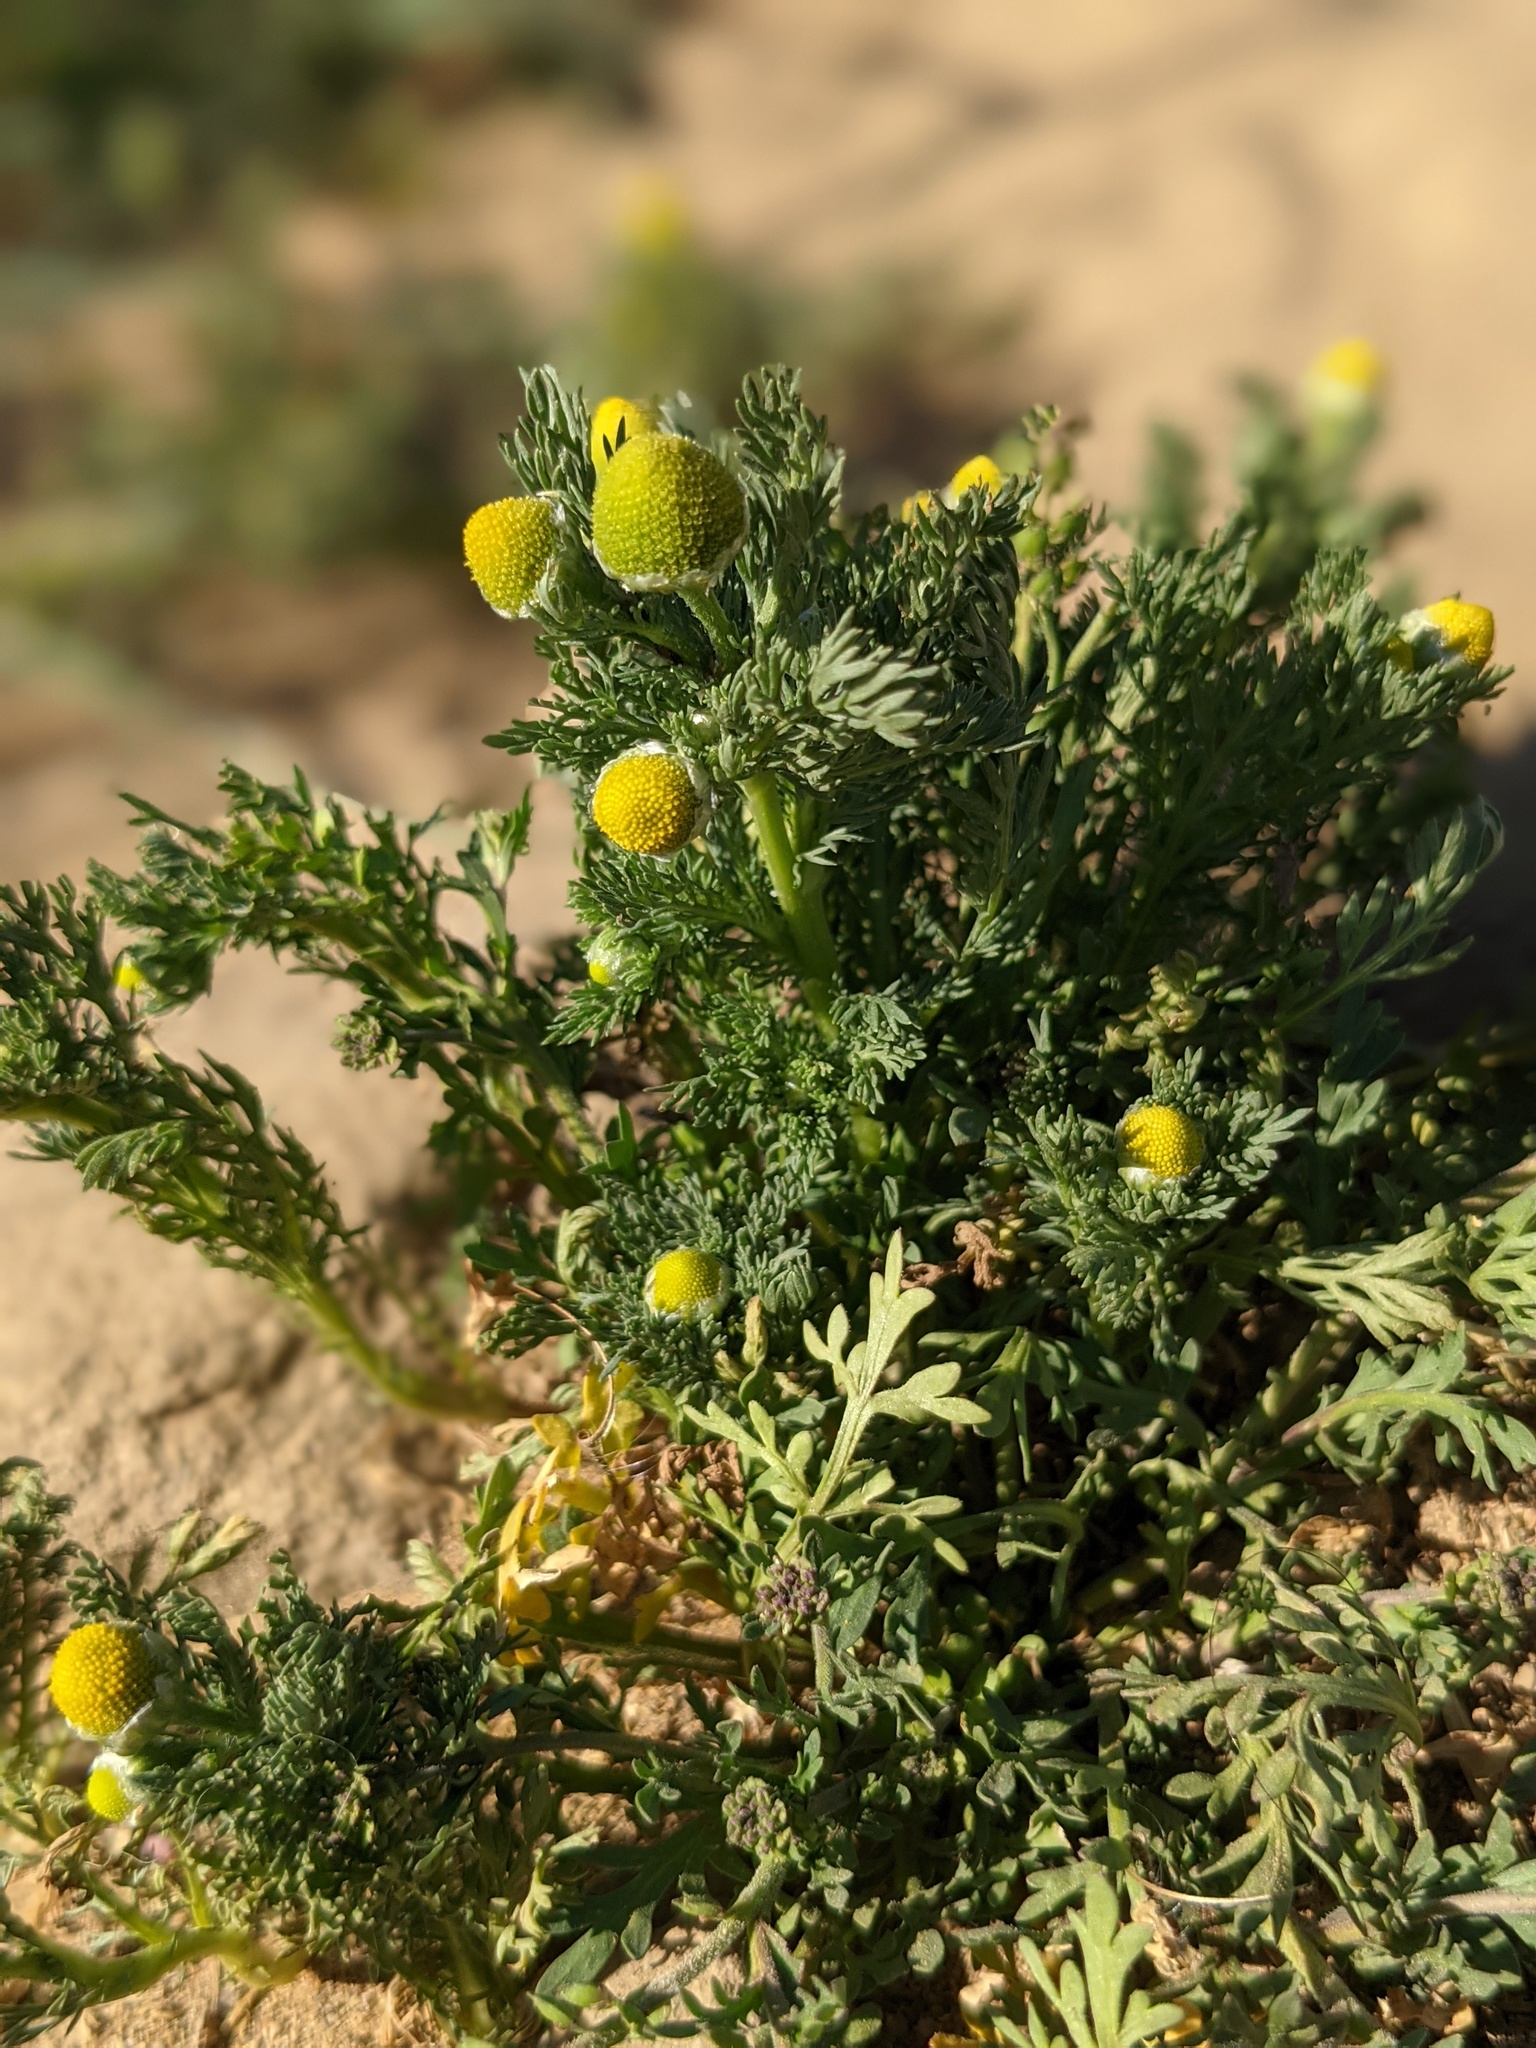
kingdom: Plantae
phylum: Tracheophyta
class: Magnoliopsida
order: Asterales
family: Asteraceae
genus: Matricaria
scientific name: Matricaria discoidea
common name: Disc mayweed
